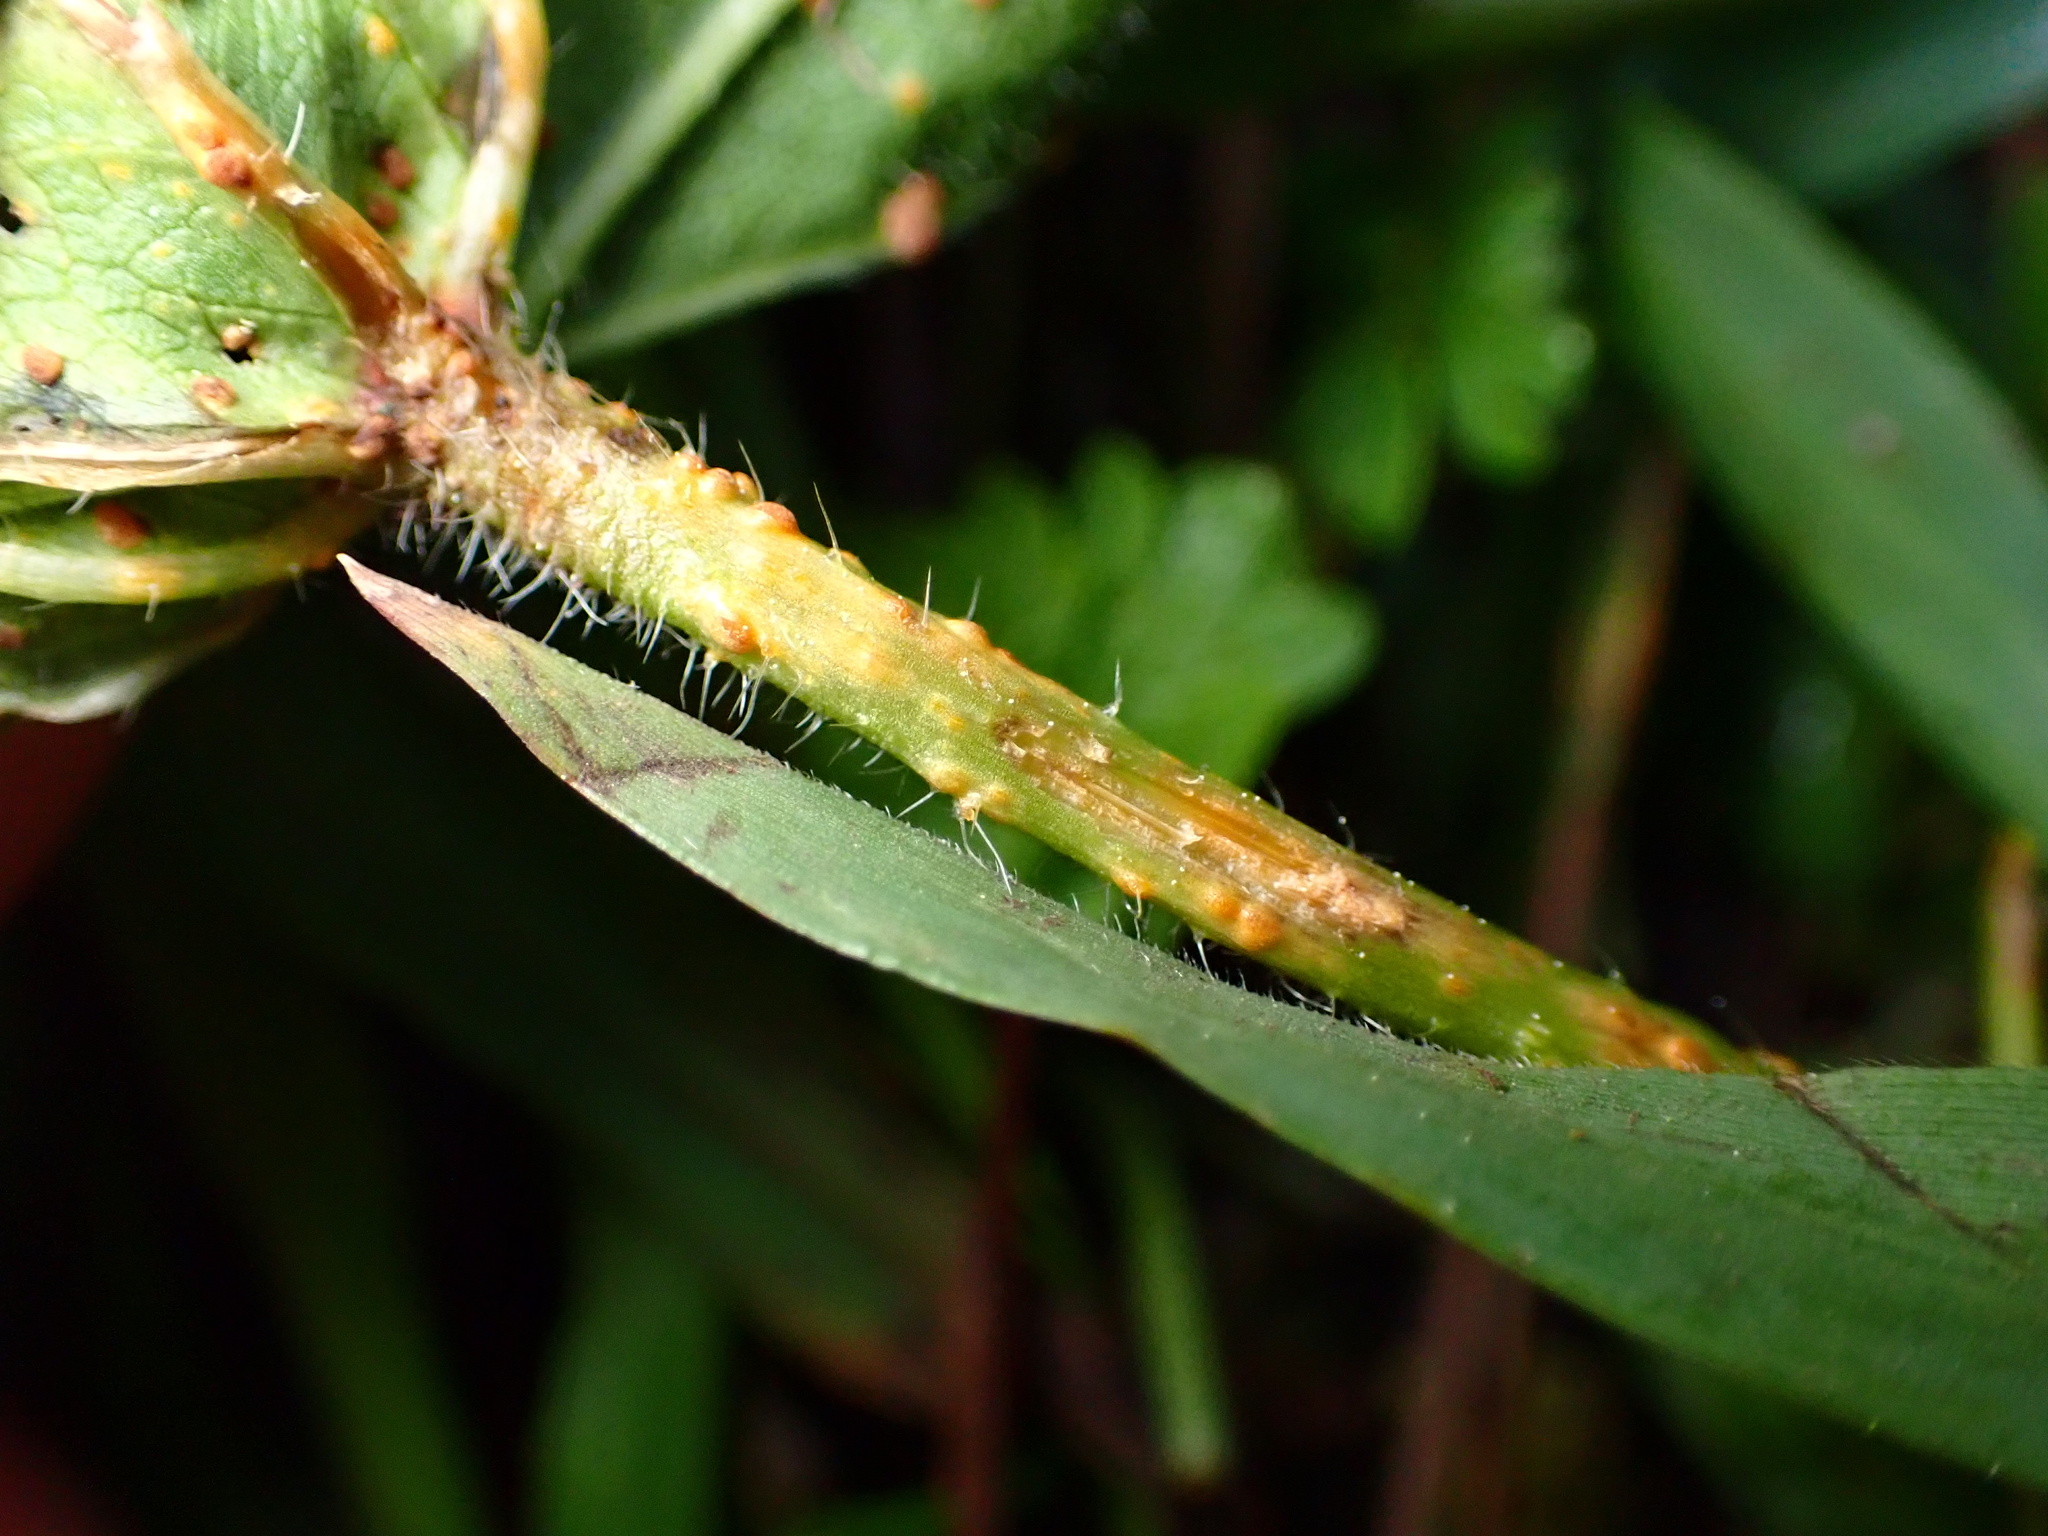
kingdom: Fungi
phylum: Basidiomycota
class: Pucciniomycetes
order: Pucciniales
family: Pucciniaceae
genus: Puccinia
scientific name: Puccinia malvacearum
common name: Hollyhock rust
